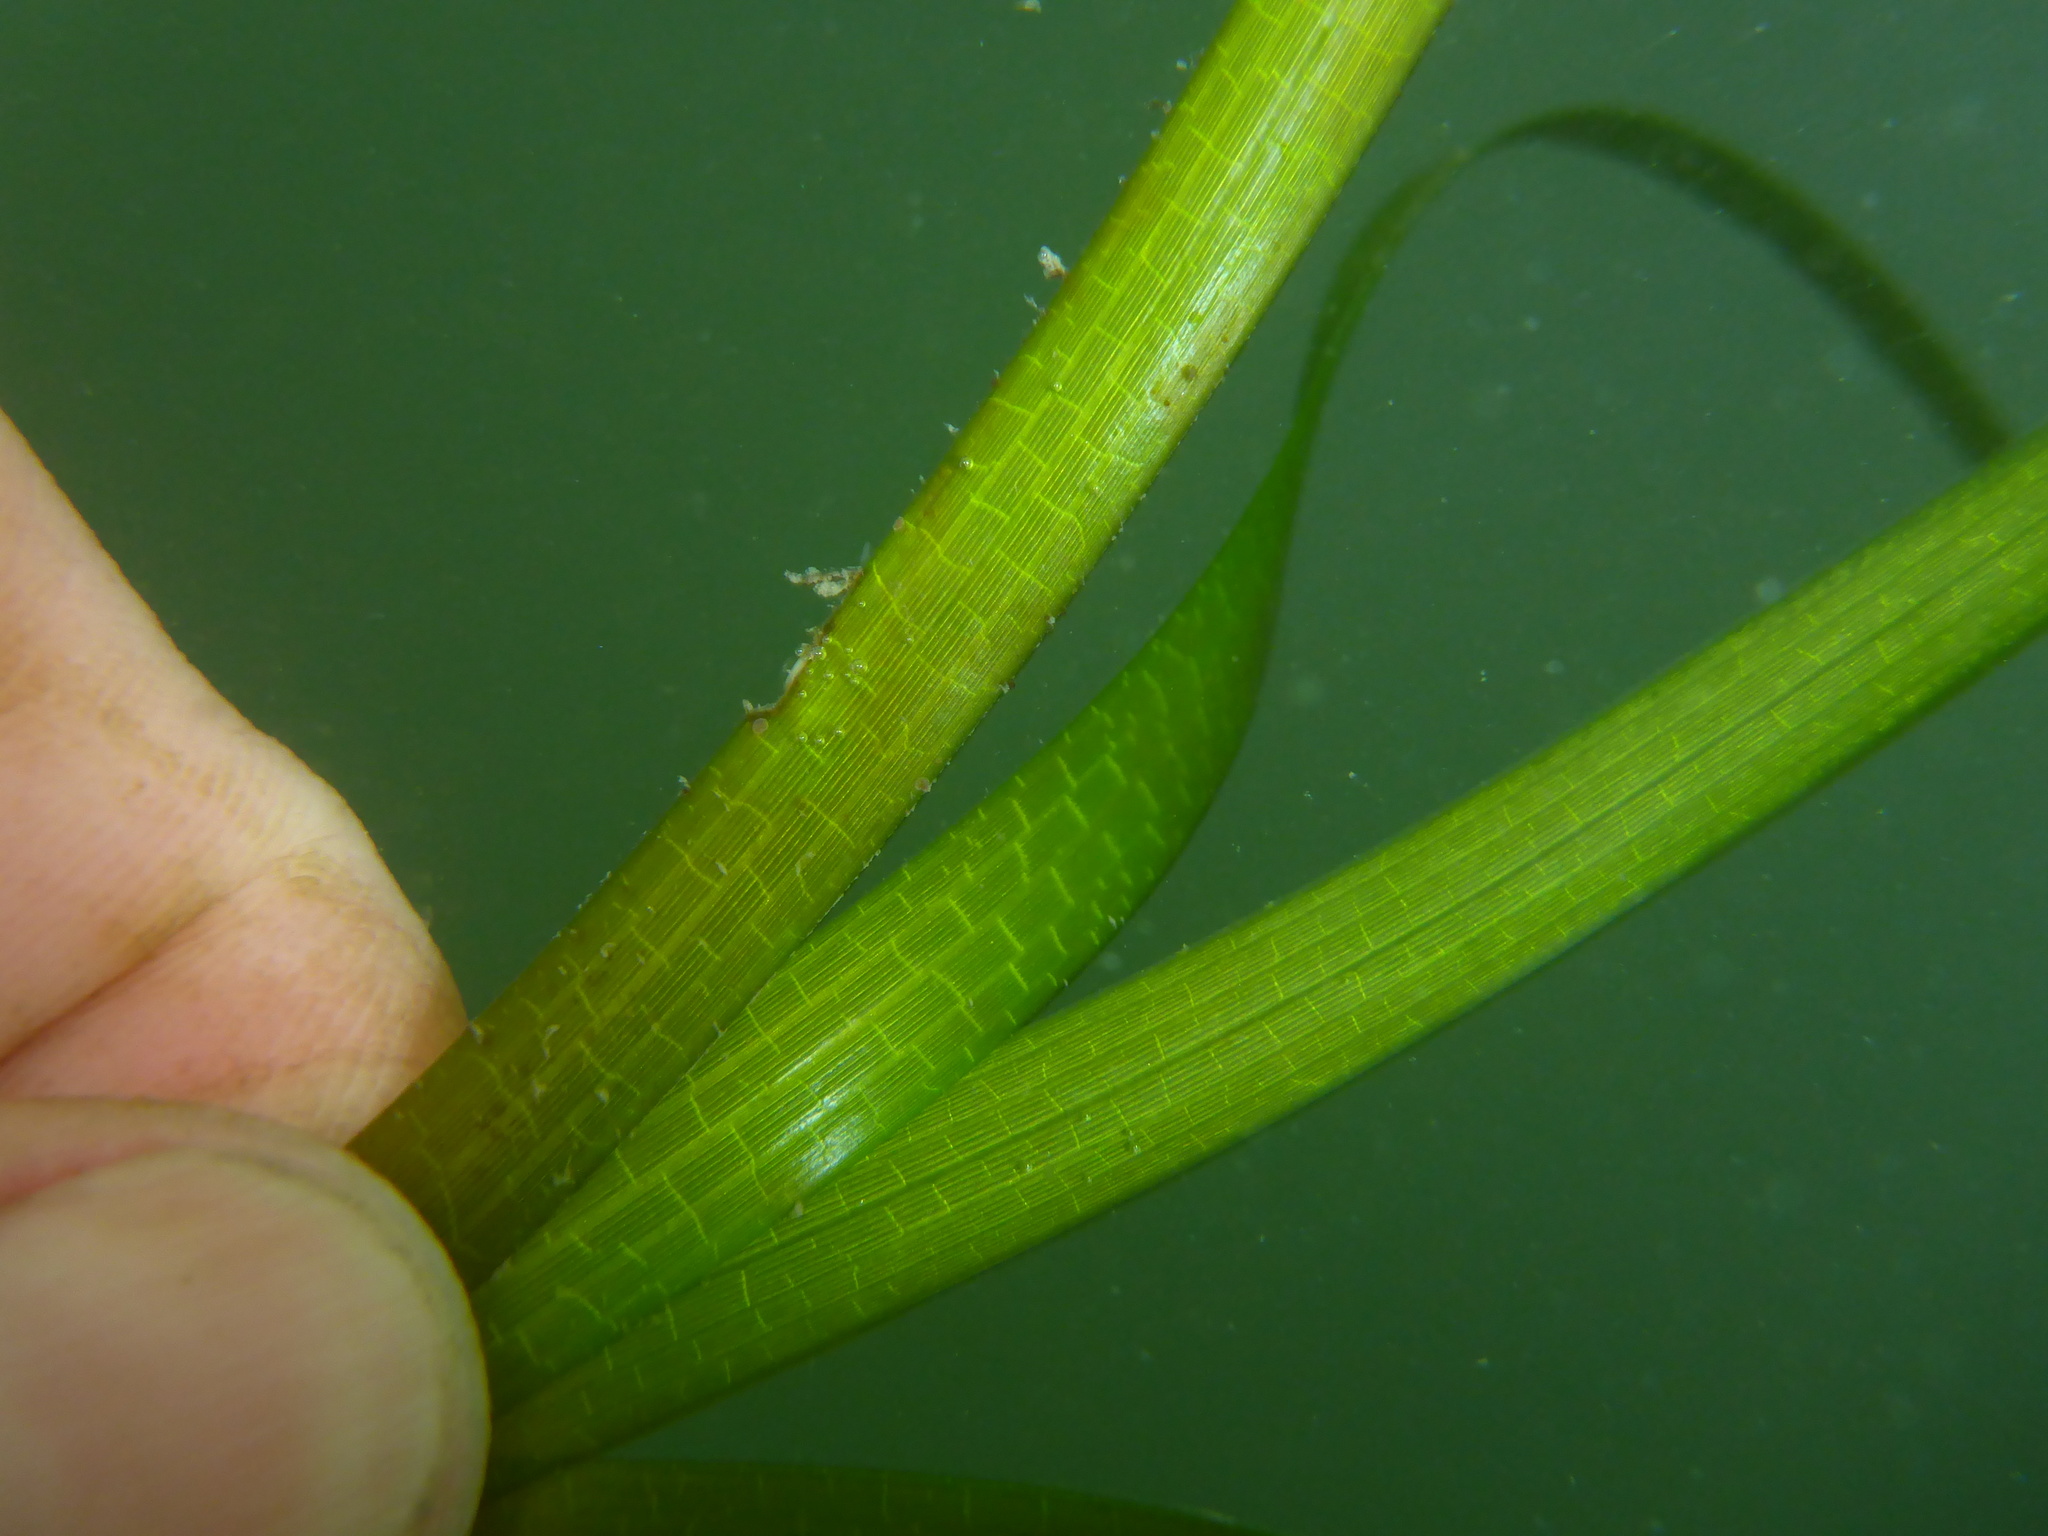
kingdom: Plantae
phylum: Tracheophyta
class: Liliopsida
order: Alismatales
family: Zosteraceae
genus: Zostera
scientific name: Zostera marina
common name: Eelgrass
